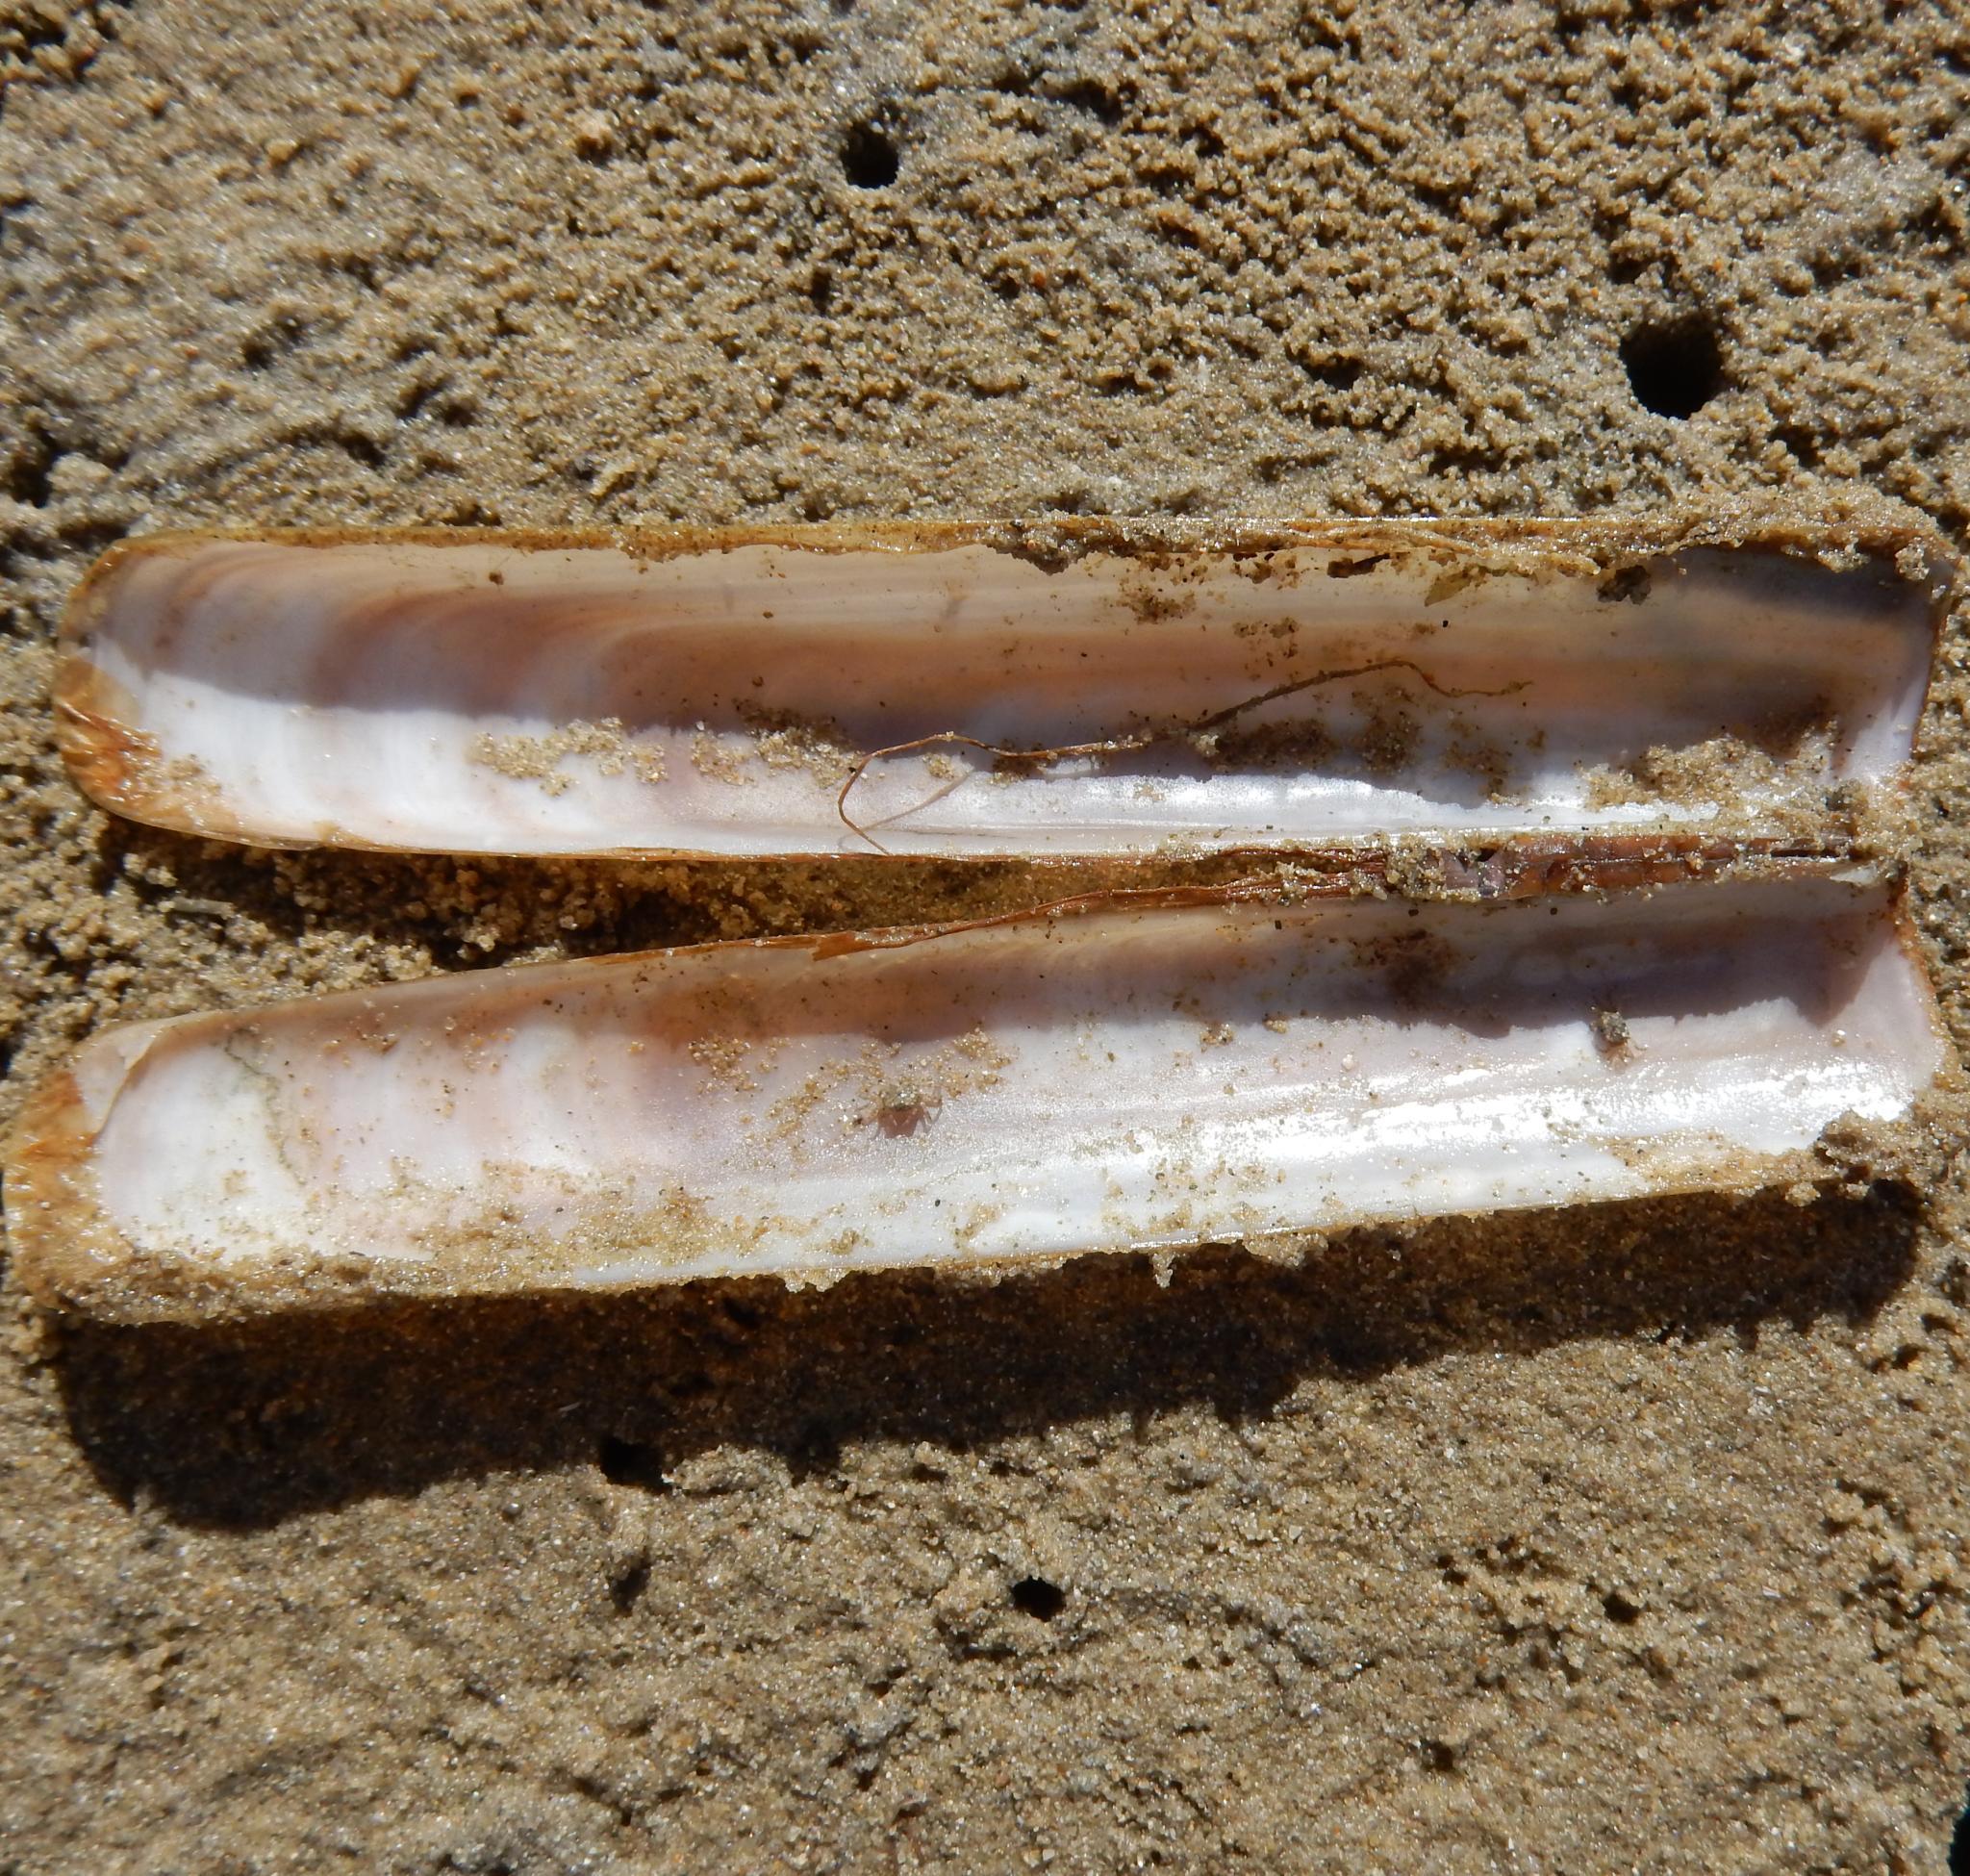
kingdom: Animalia
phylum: Mollusca
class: Bivalvia
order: Adapedonta
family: Solenidae
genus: Solen
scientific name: Solen cylindraceus
